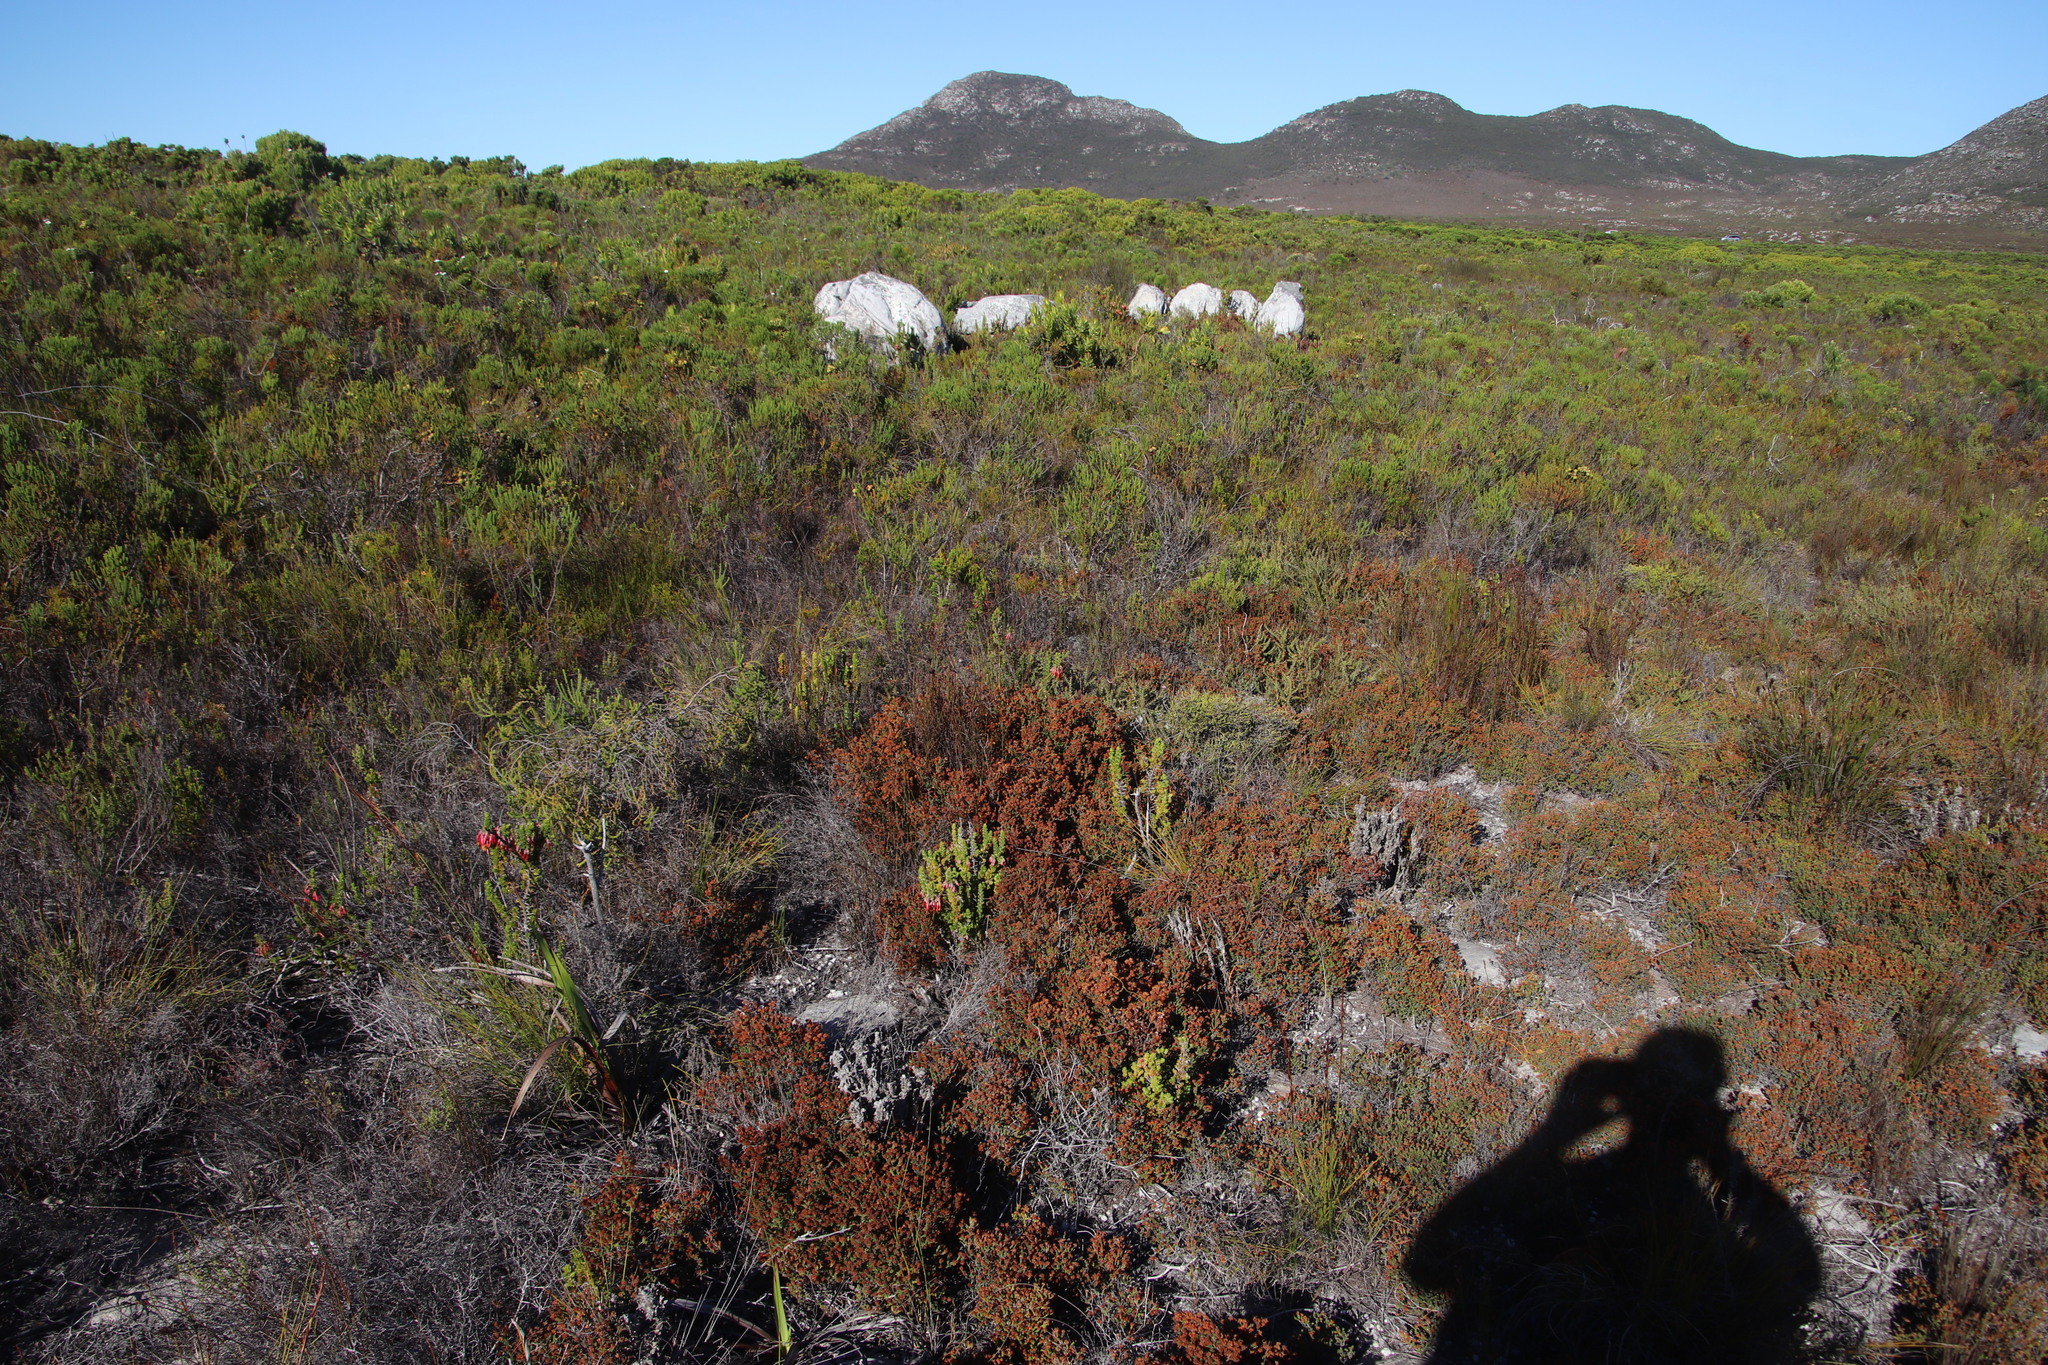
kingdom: Plantae
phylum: Tracheophyta
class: Magnoliopsida
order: Ericales
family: Ericaceae
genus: Erica
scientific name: Erica ericoides
